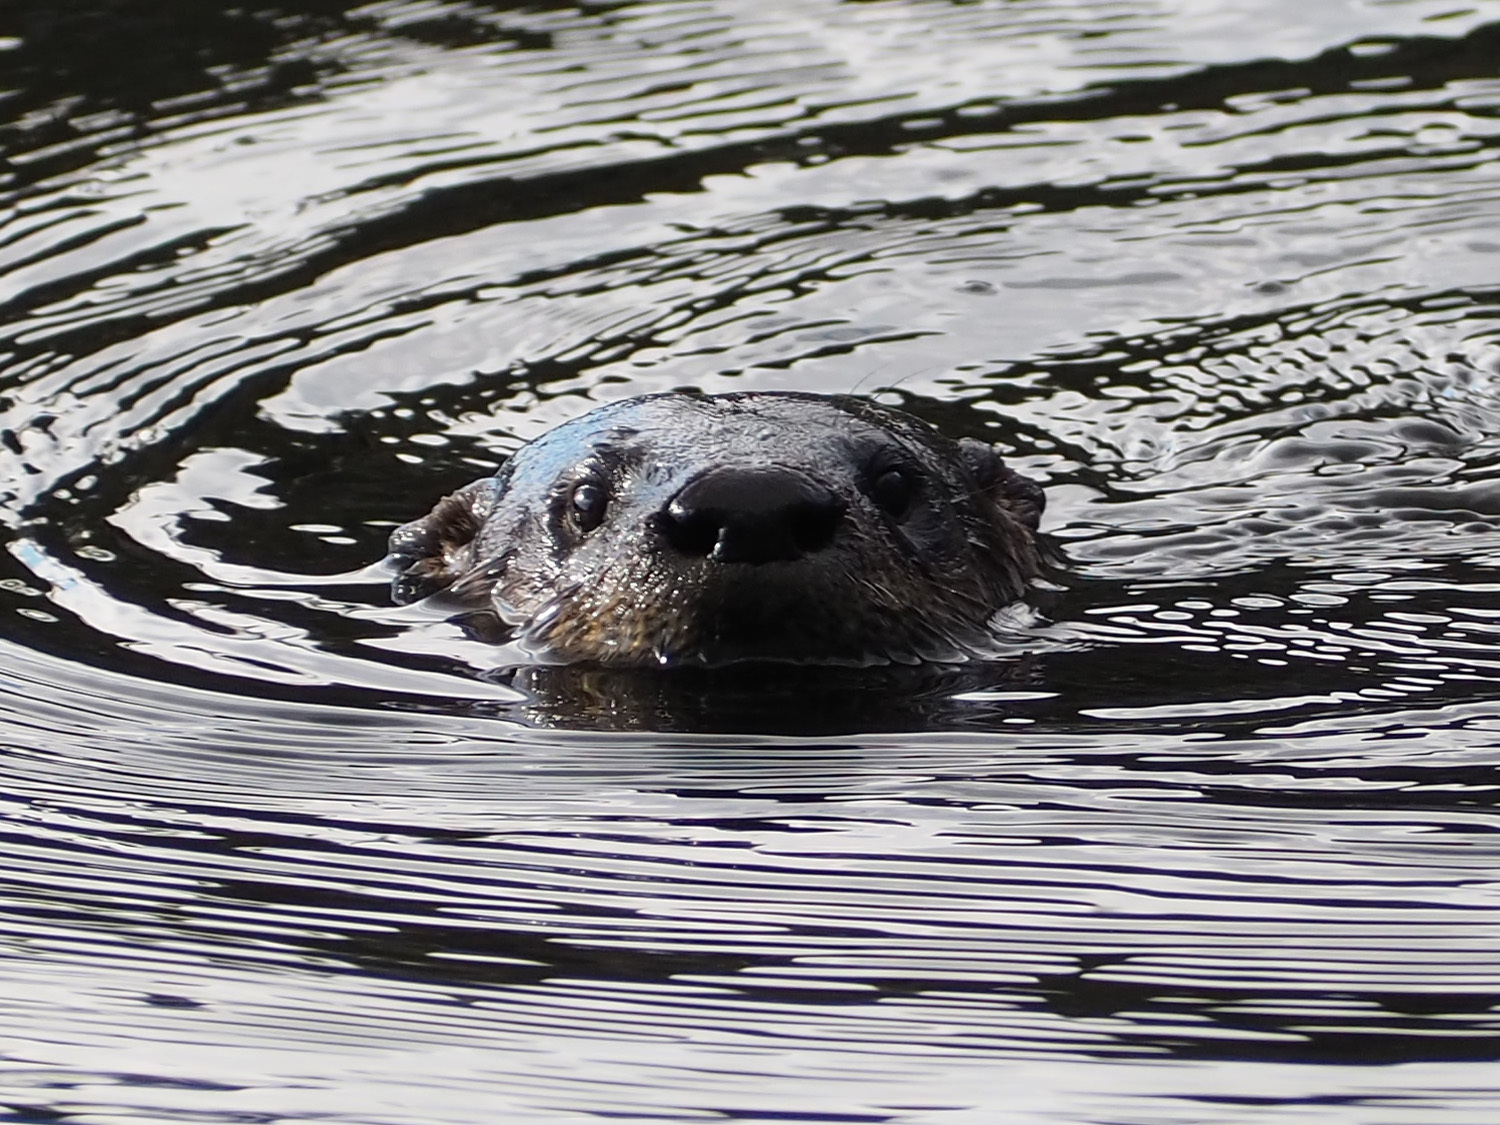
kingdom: Animalia
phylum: Chordata
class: Mammalia
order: Carnivora
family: Mustelidae
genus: Lontra
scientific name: Lontra canadensis
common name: North american river otter
